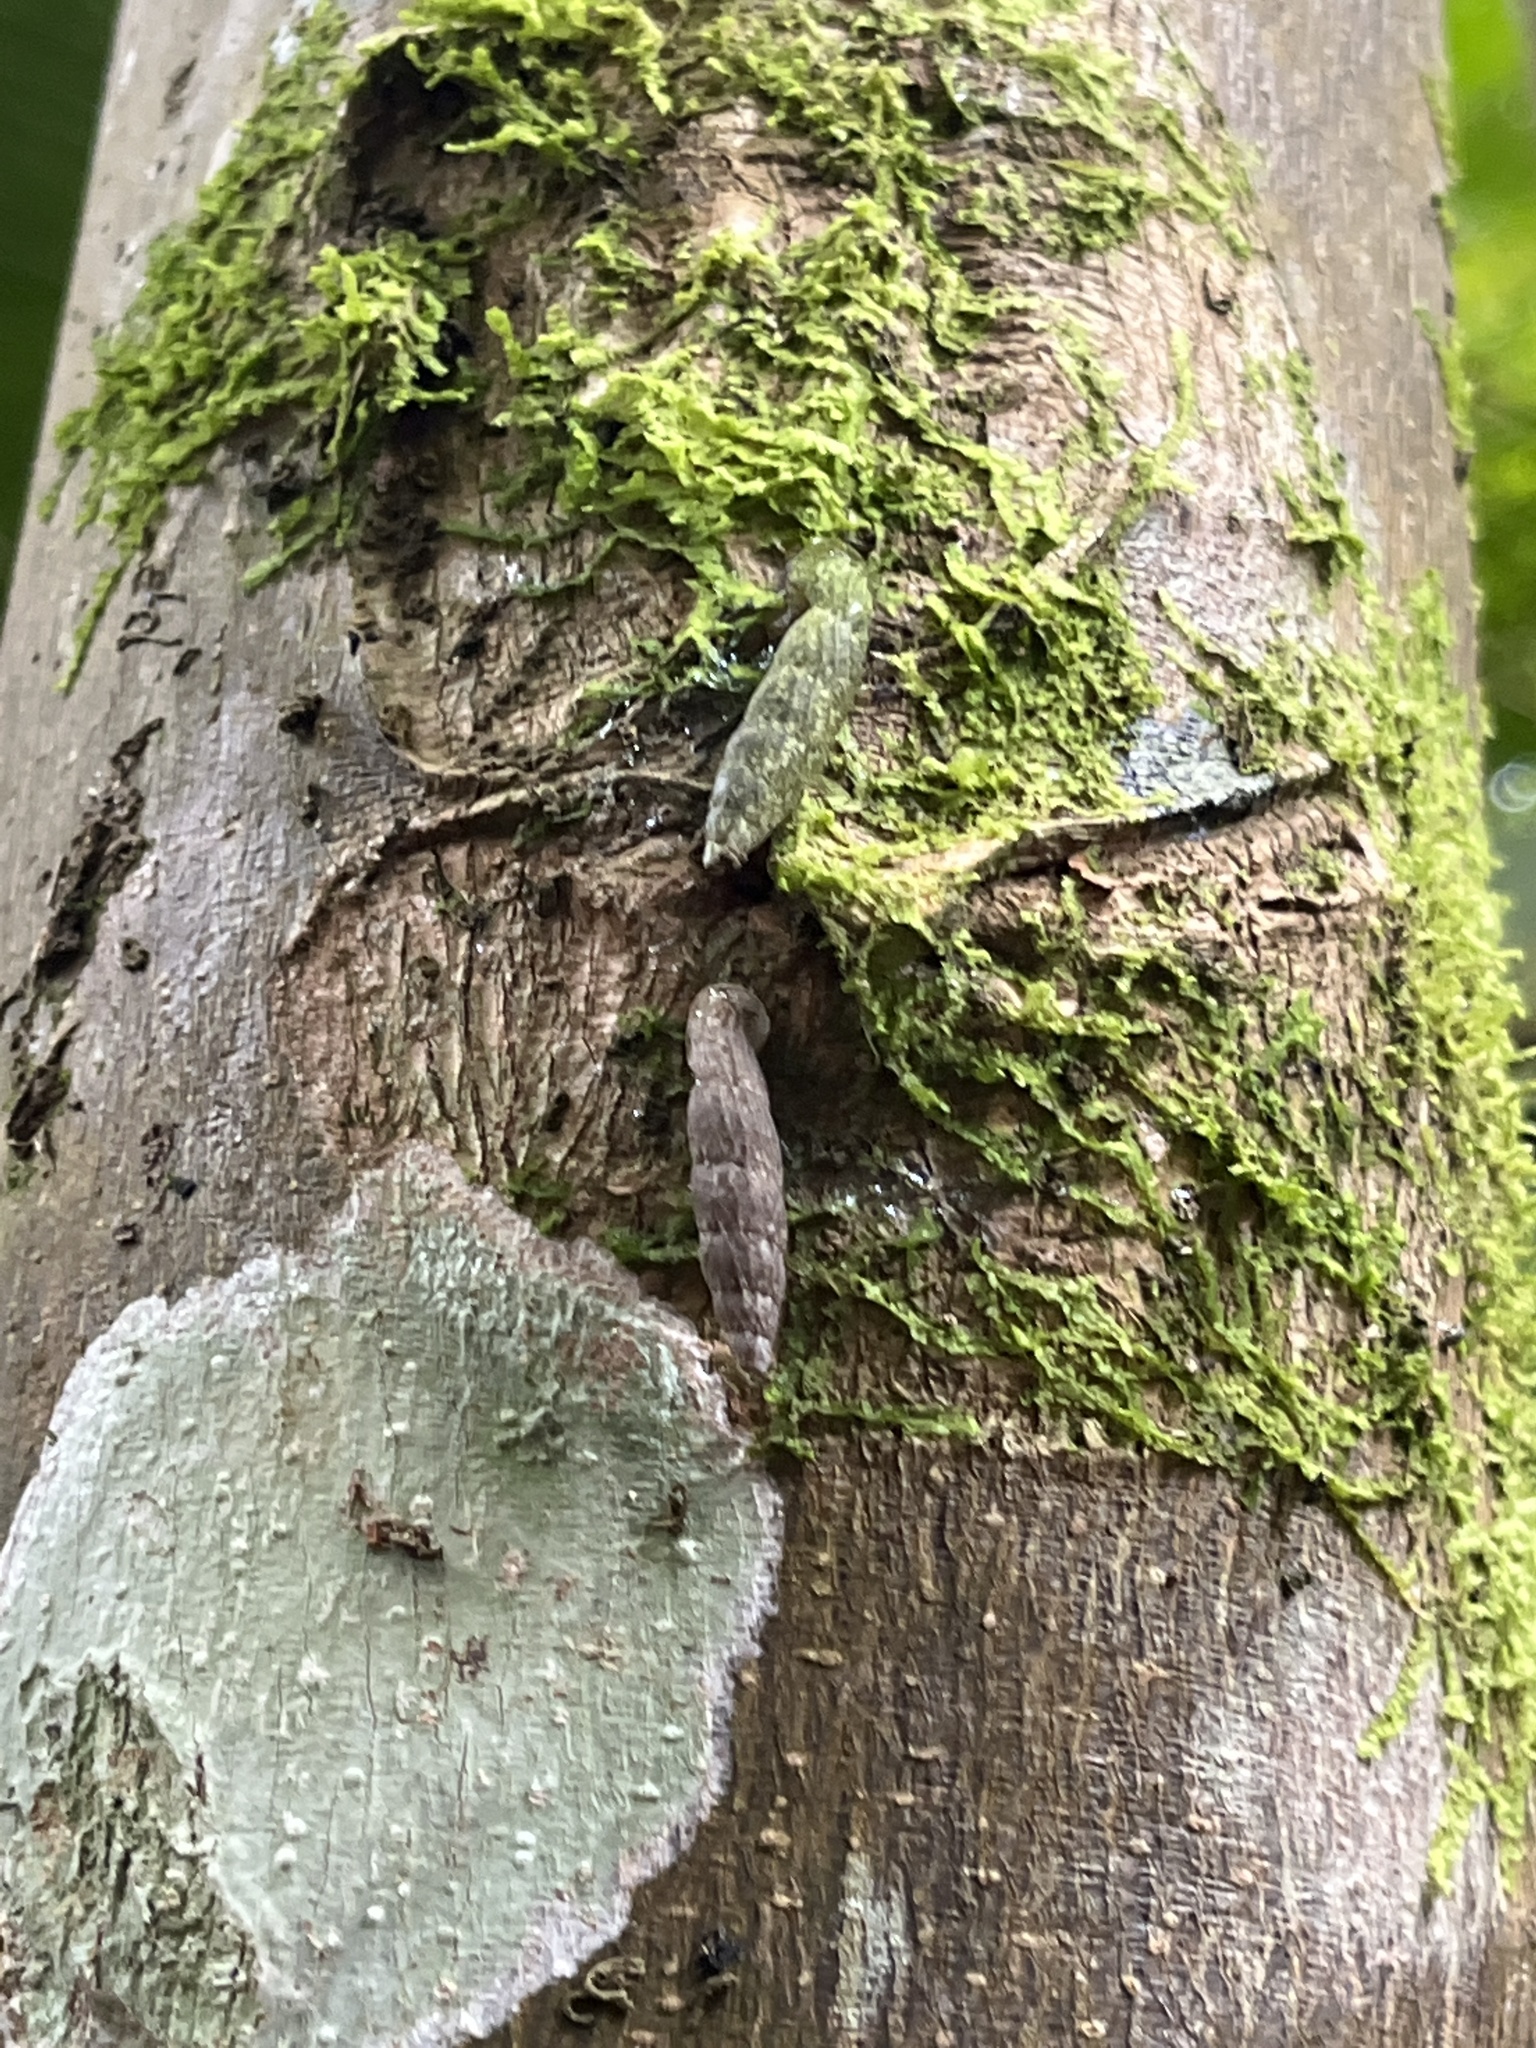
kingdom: Animalia
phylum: Mollusca
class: Gastropoda
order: Stylommatophora
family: Clausiliidae
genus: Nenia
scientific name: Nenia tridens
